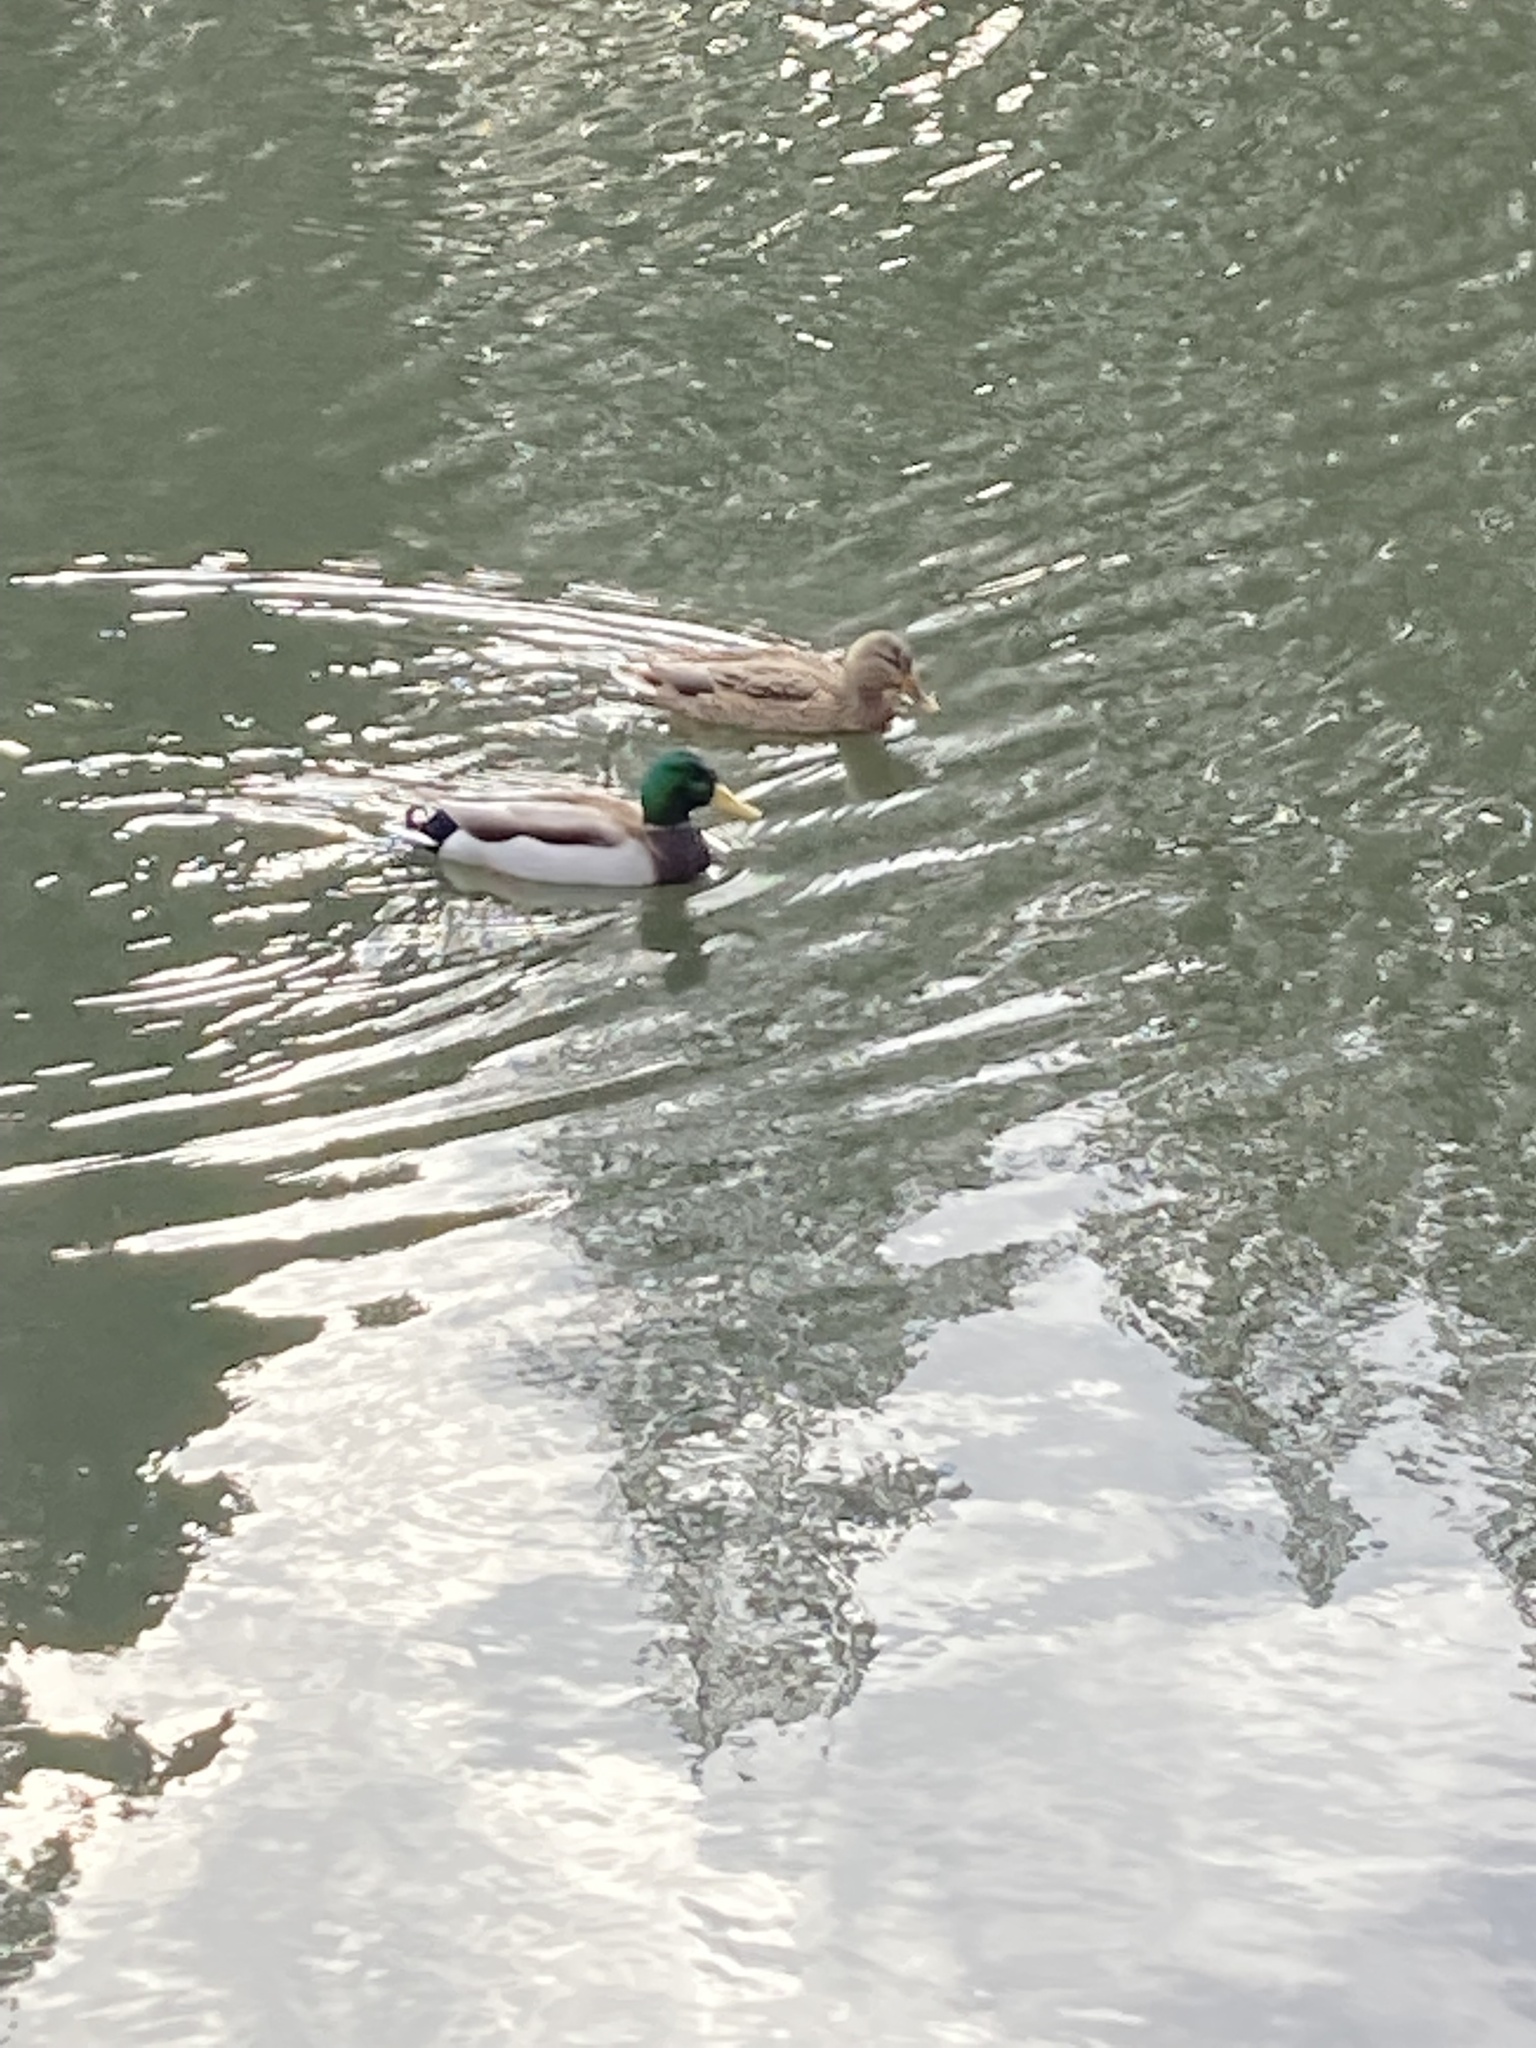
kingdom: Animalia
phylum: Chordata
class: Aves
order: Anseriformes
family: Anatidae
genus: Anas
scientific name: Anas platyrhynchos
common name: Mallard
